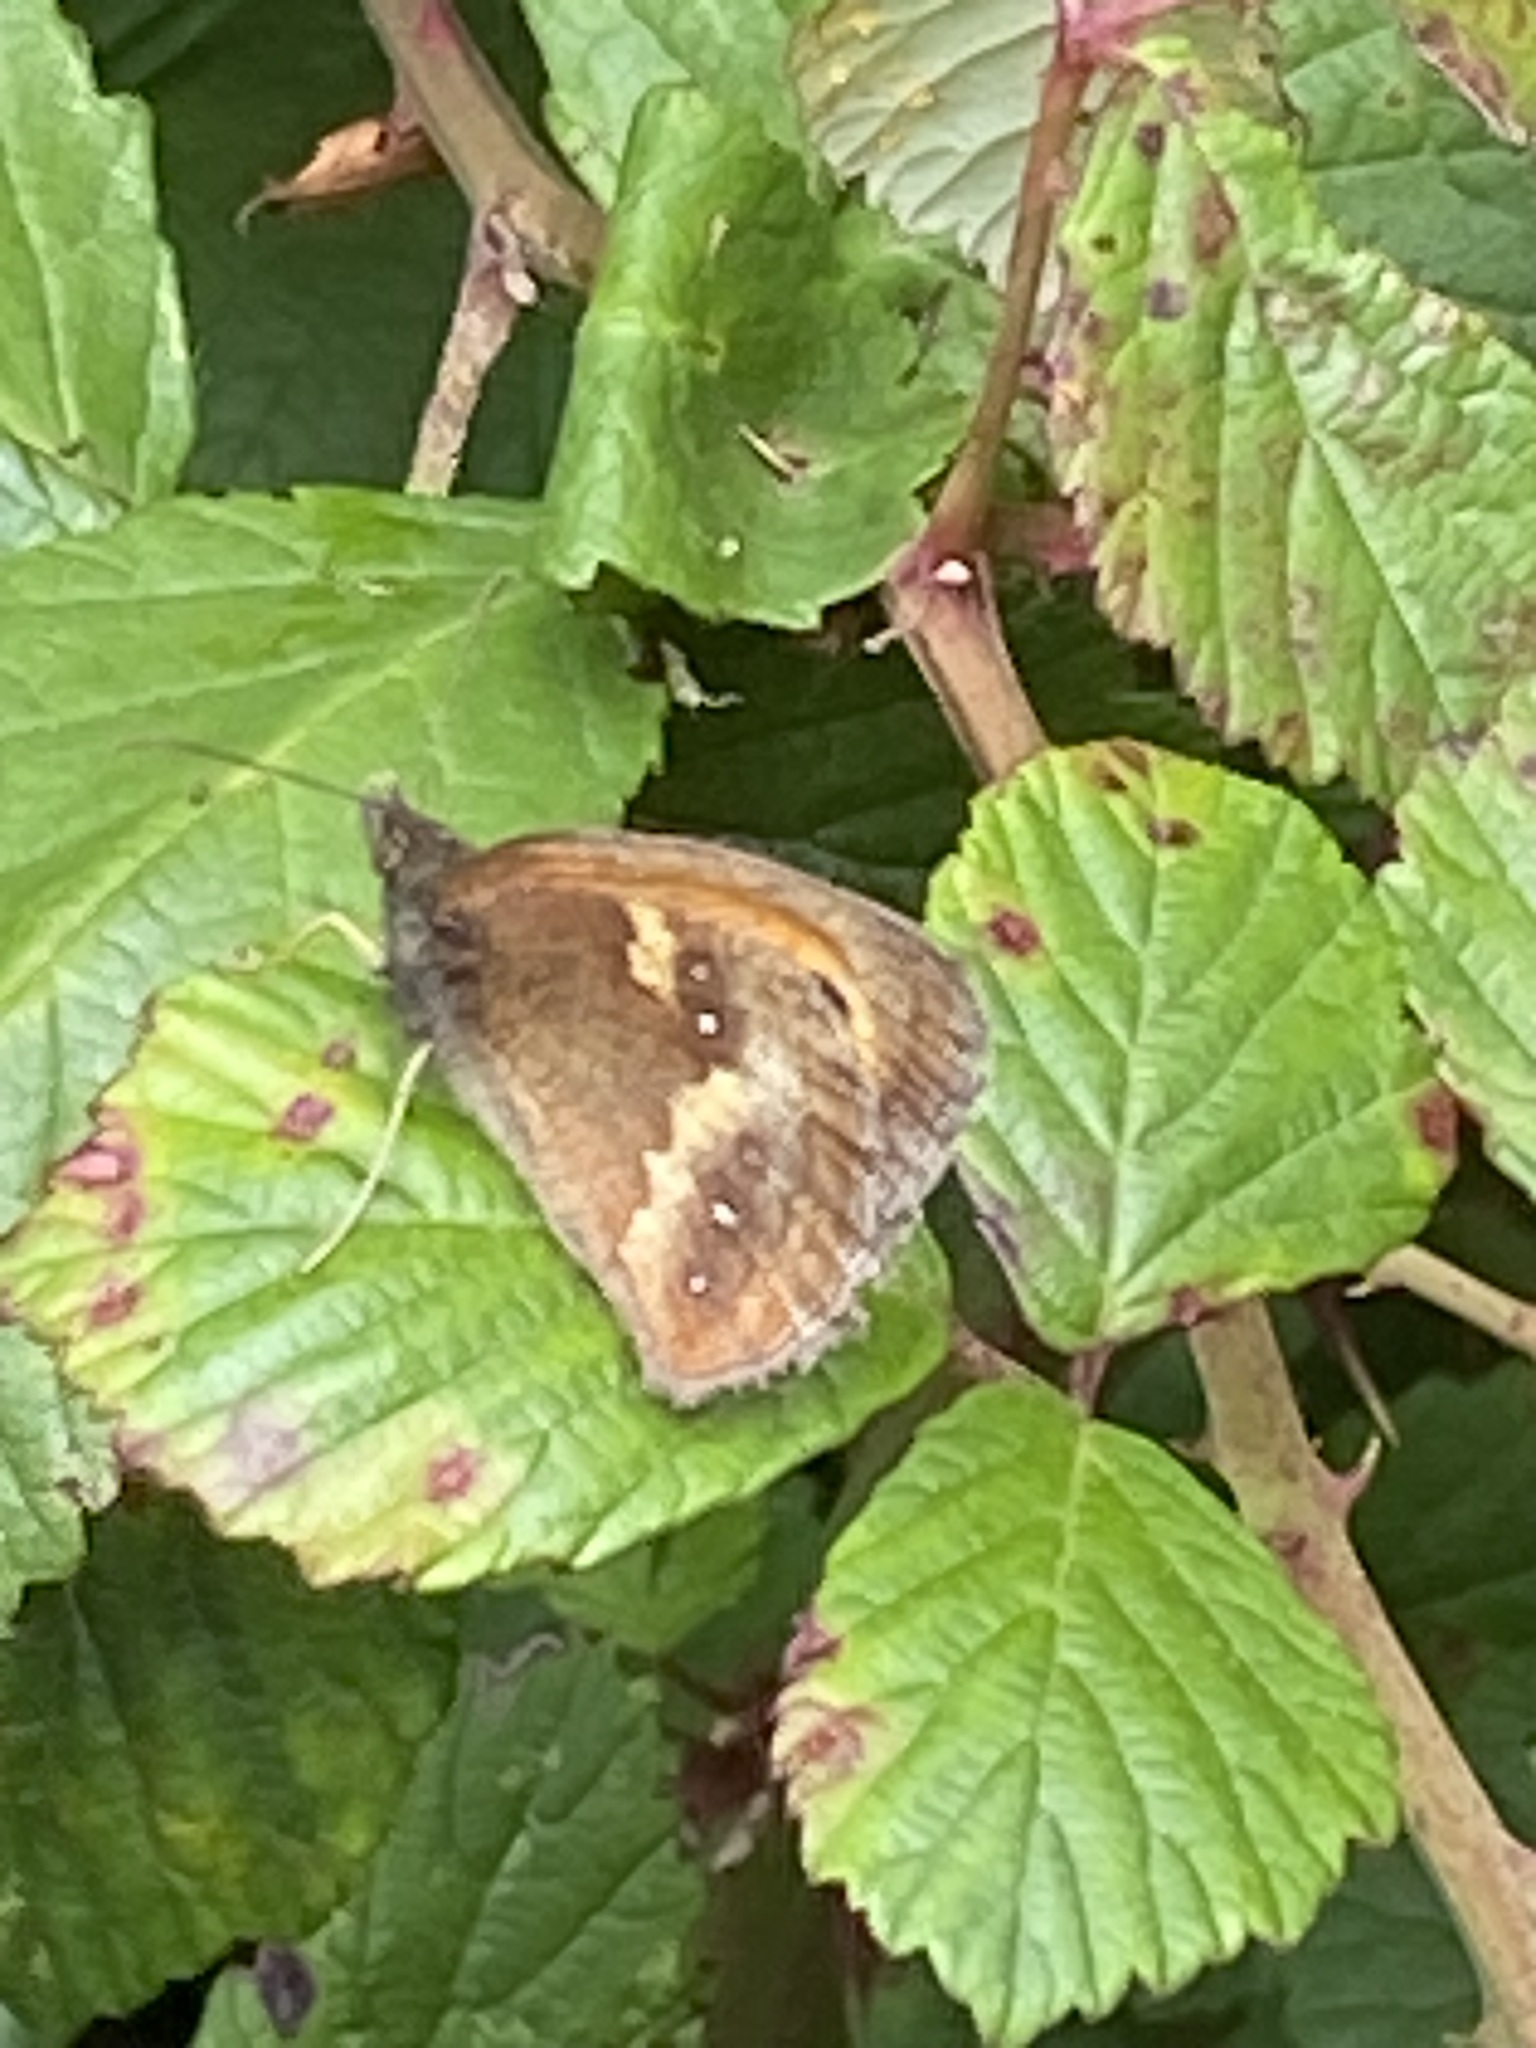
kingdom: Animalia
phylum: Arthropoda
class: Insecta
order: Lepidoptera
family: Nymphalidae
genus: Pyronia
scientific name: Pyronia tithonus
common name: Gatekeeper
